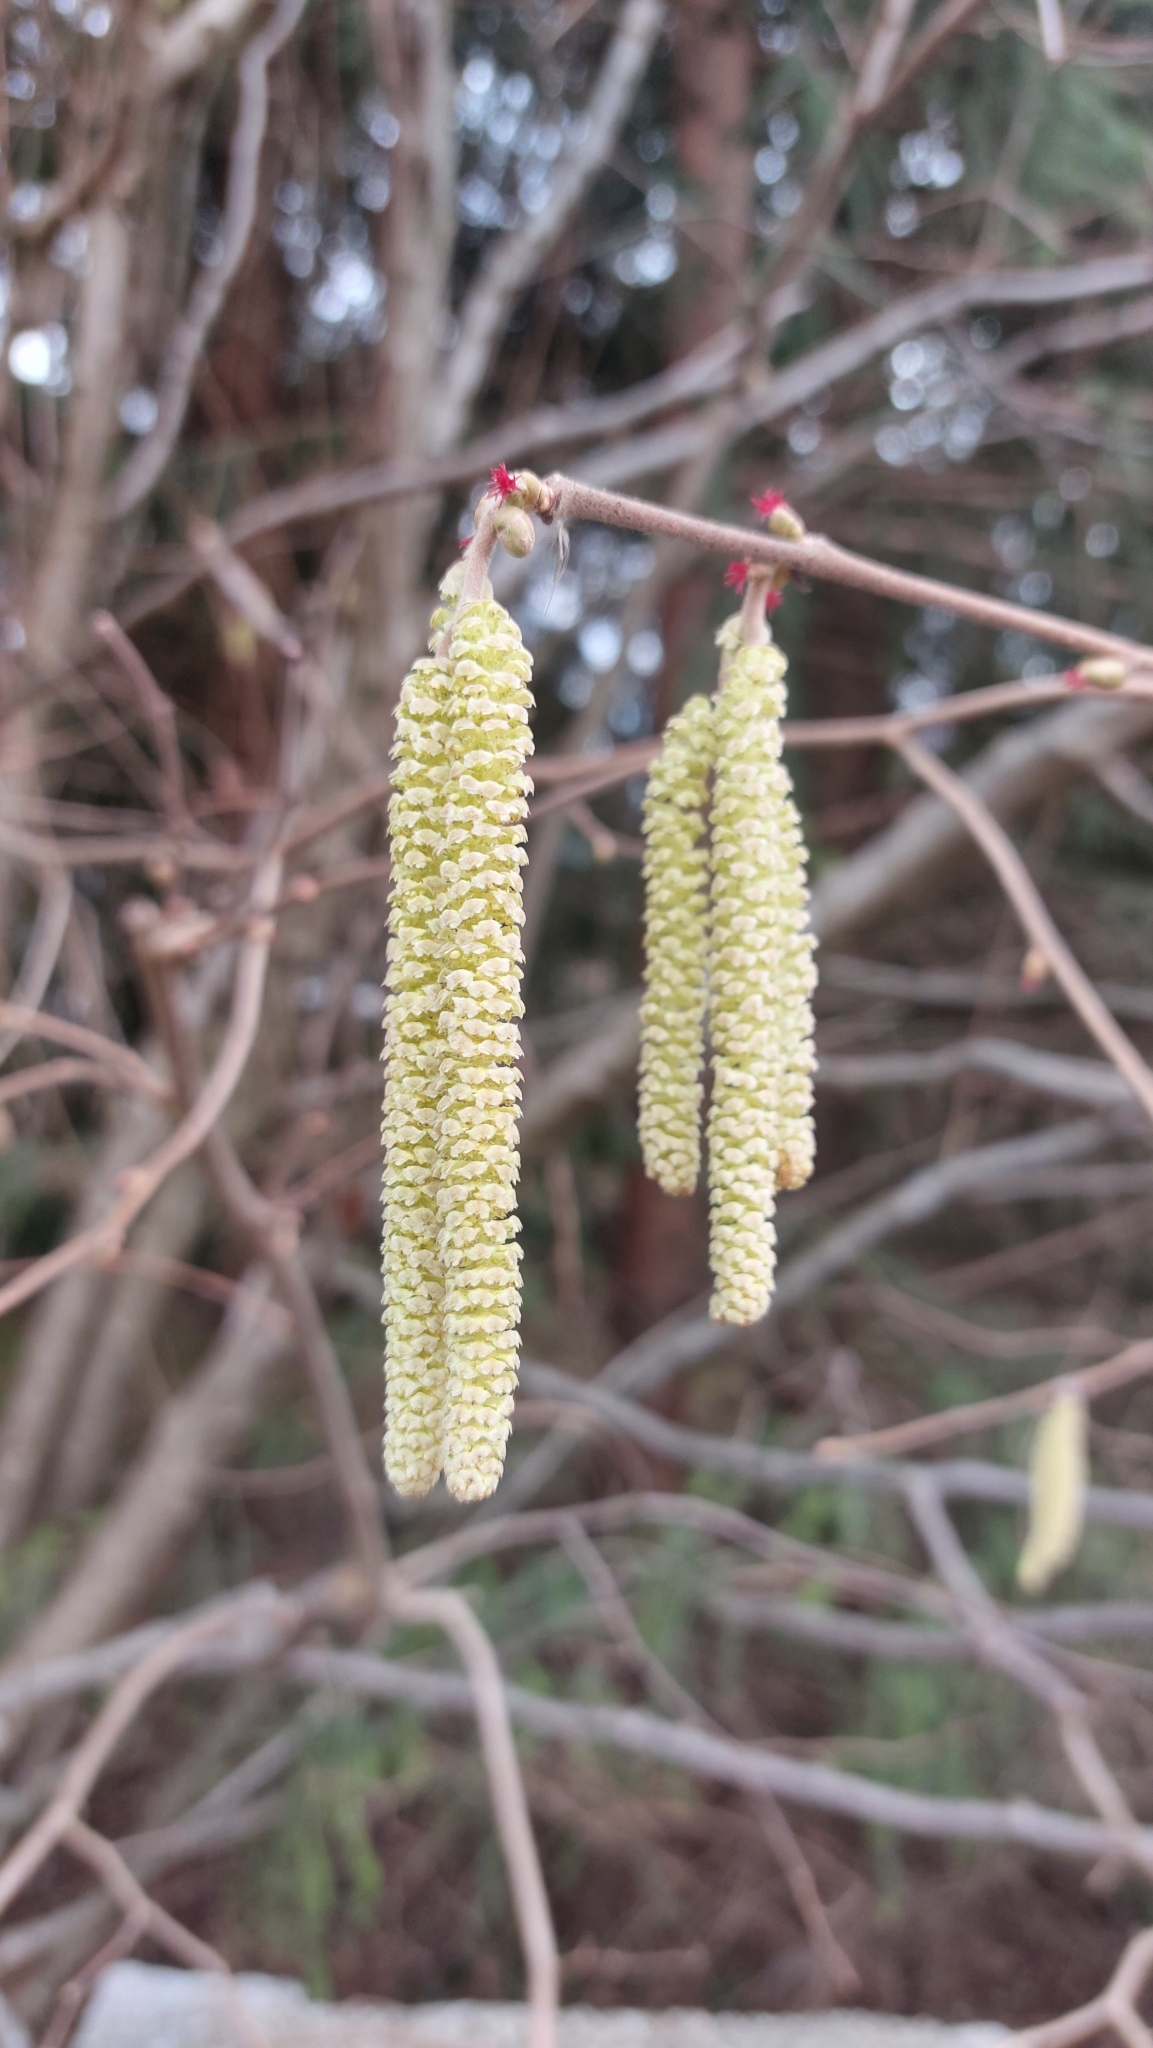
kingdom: Plantae
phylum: Tracheophyta
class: Magnoliopsida
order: Fagales
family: Betulaceae
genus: Corylus
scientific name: Corylus avellana
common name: European hazel
